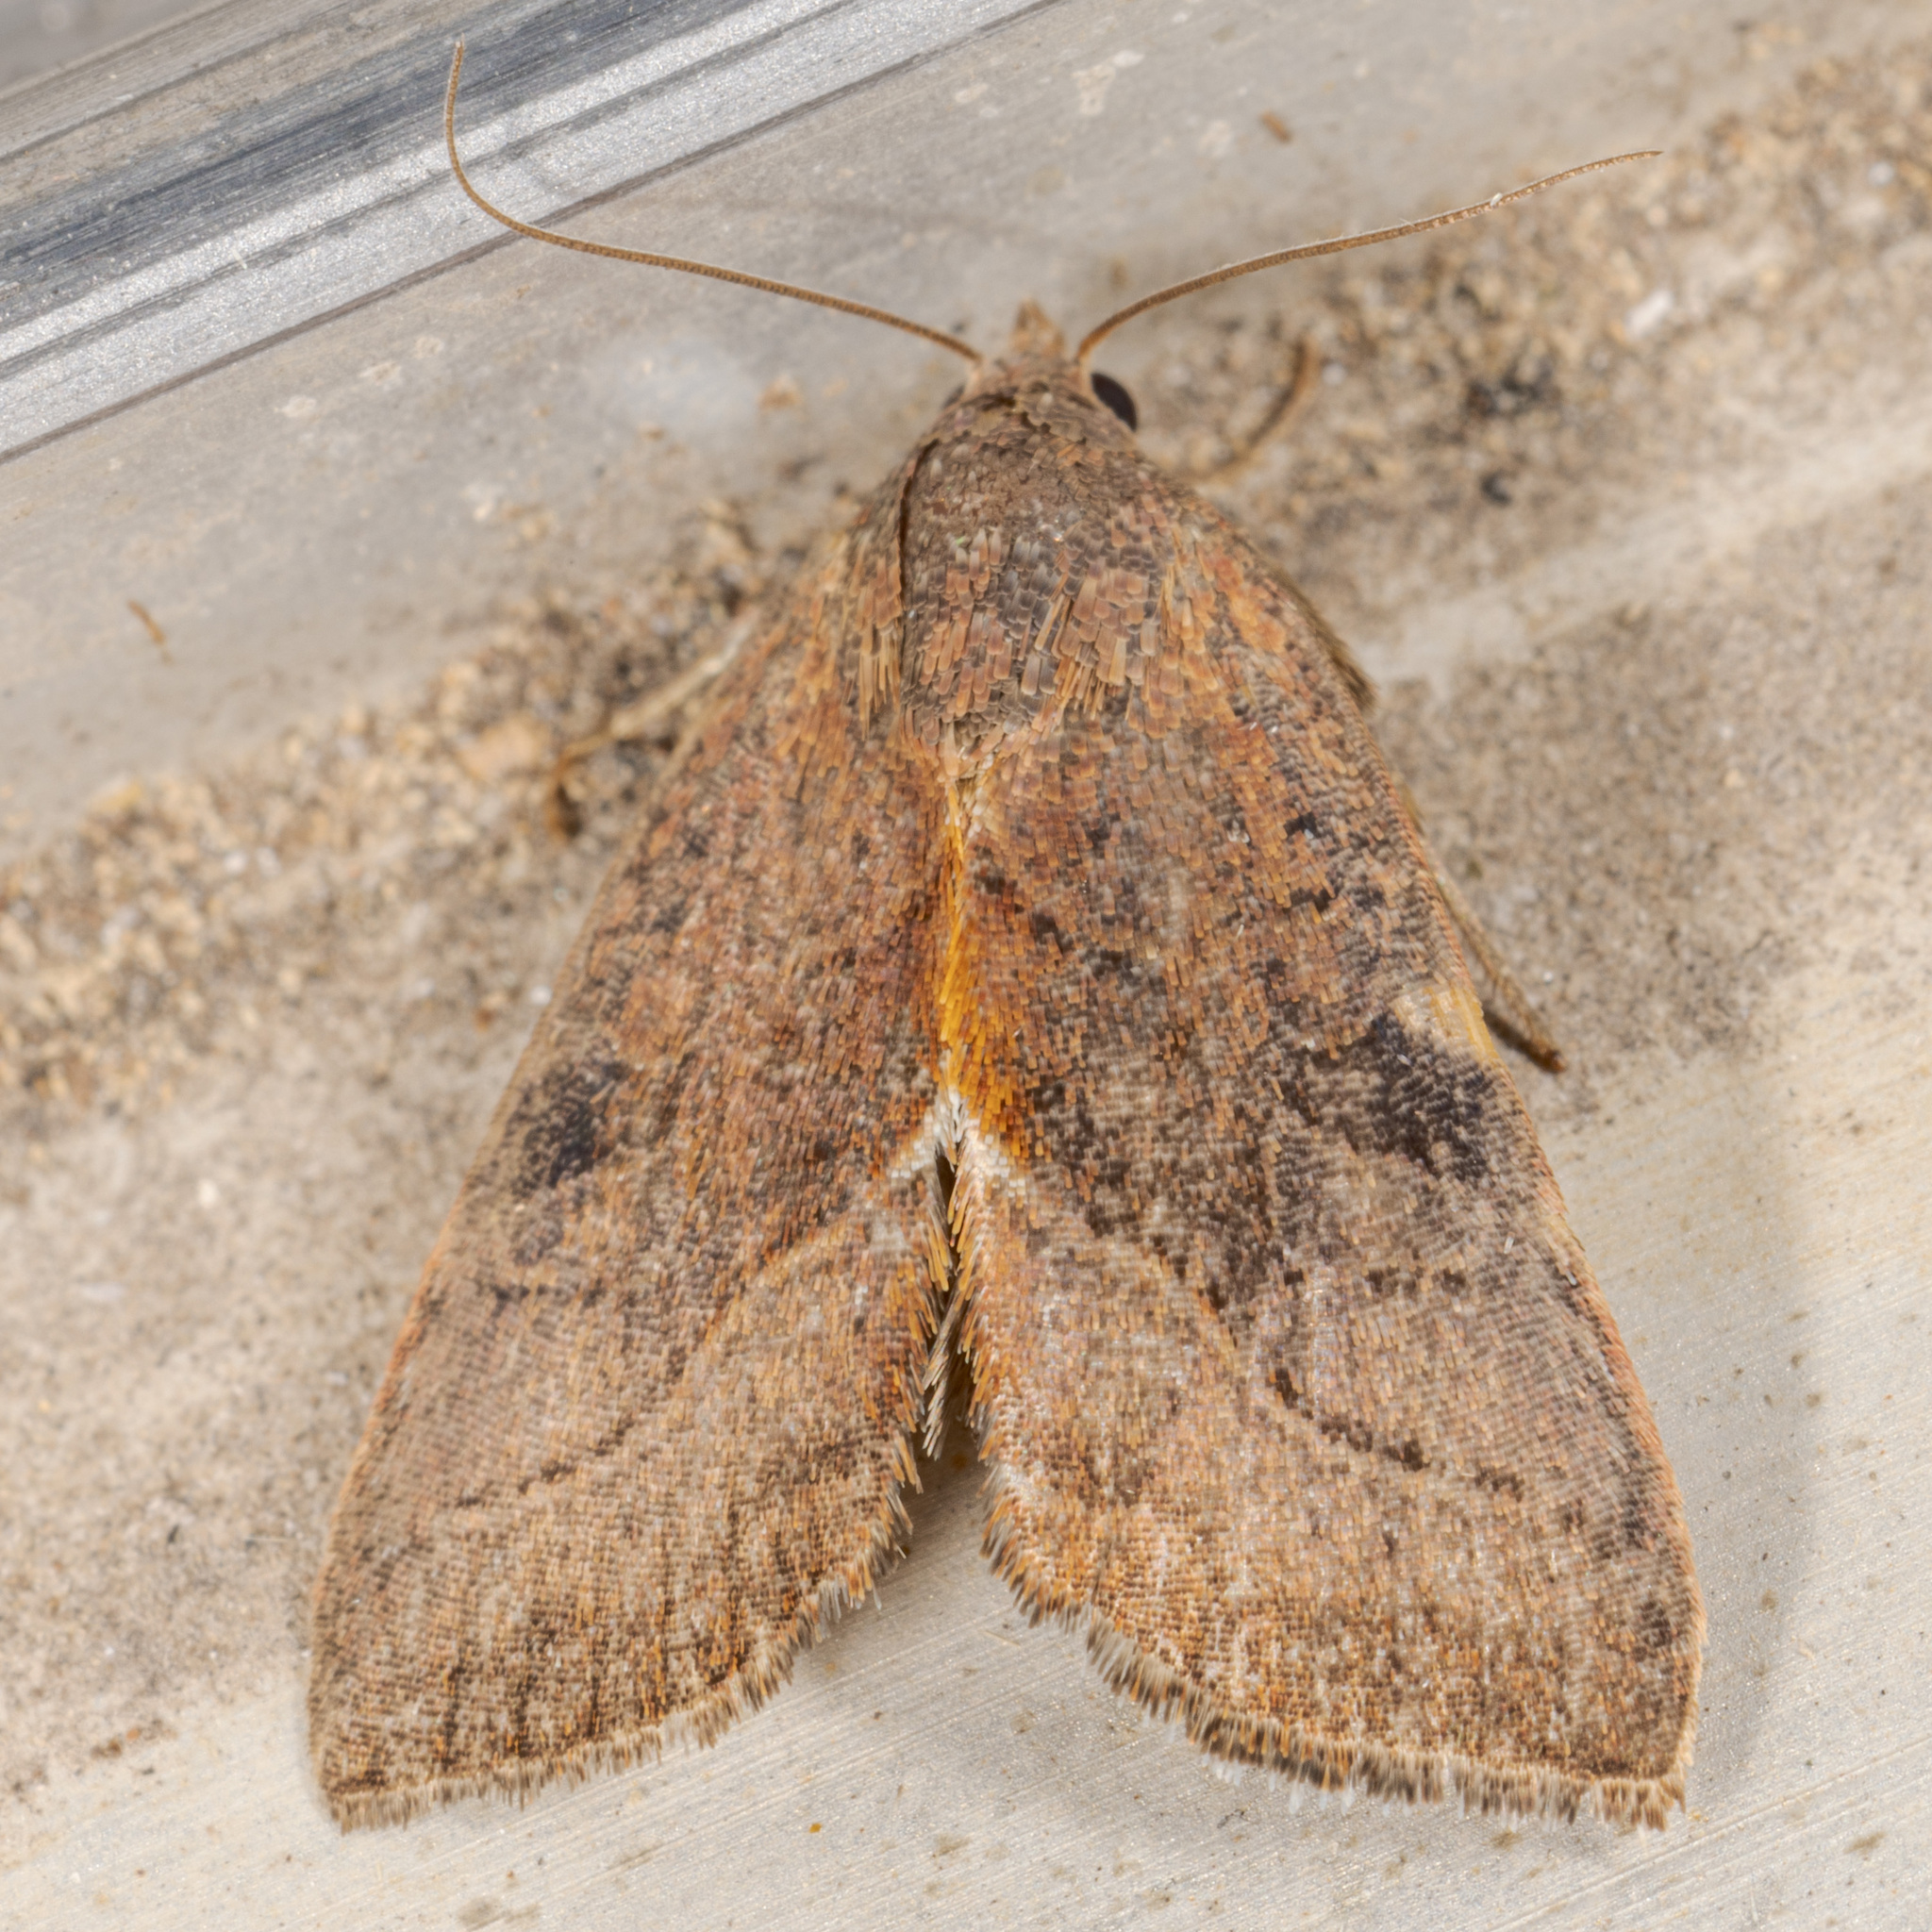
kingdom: Animalia
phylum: Arthropoda
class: Insecta
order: Lepidoptera
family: Noctuidae
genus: Galgula
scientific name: Galgula partita
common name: Wedgeling
